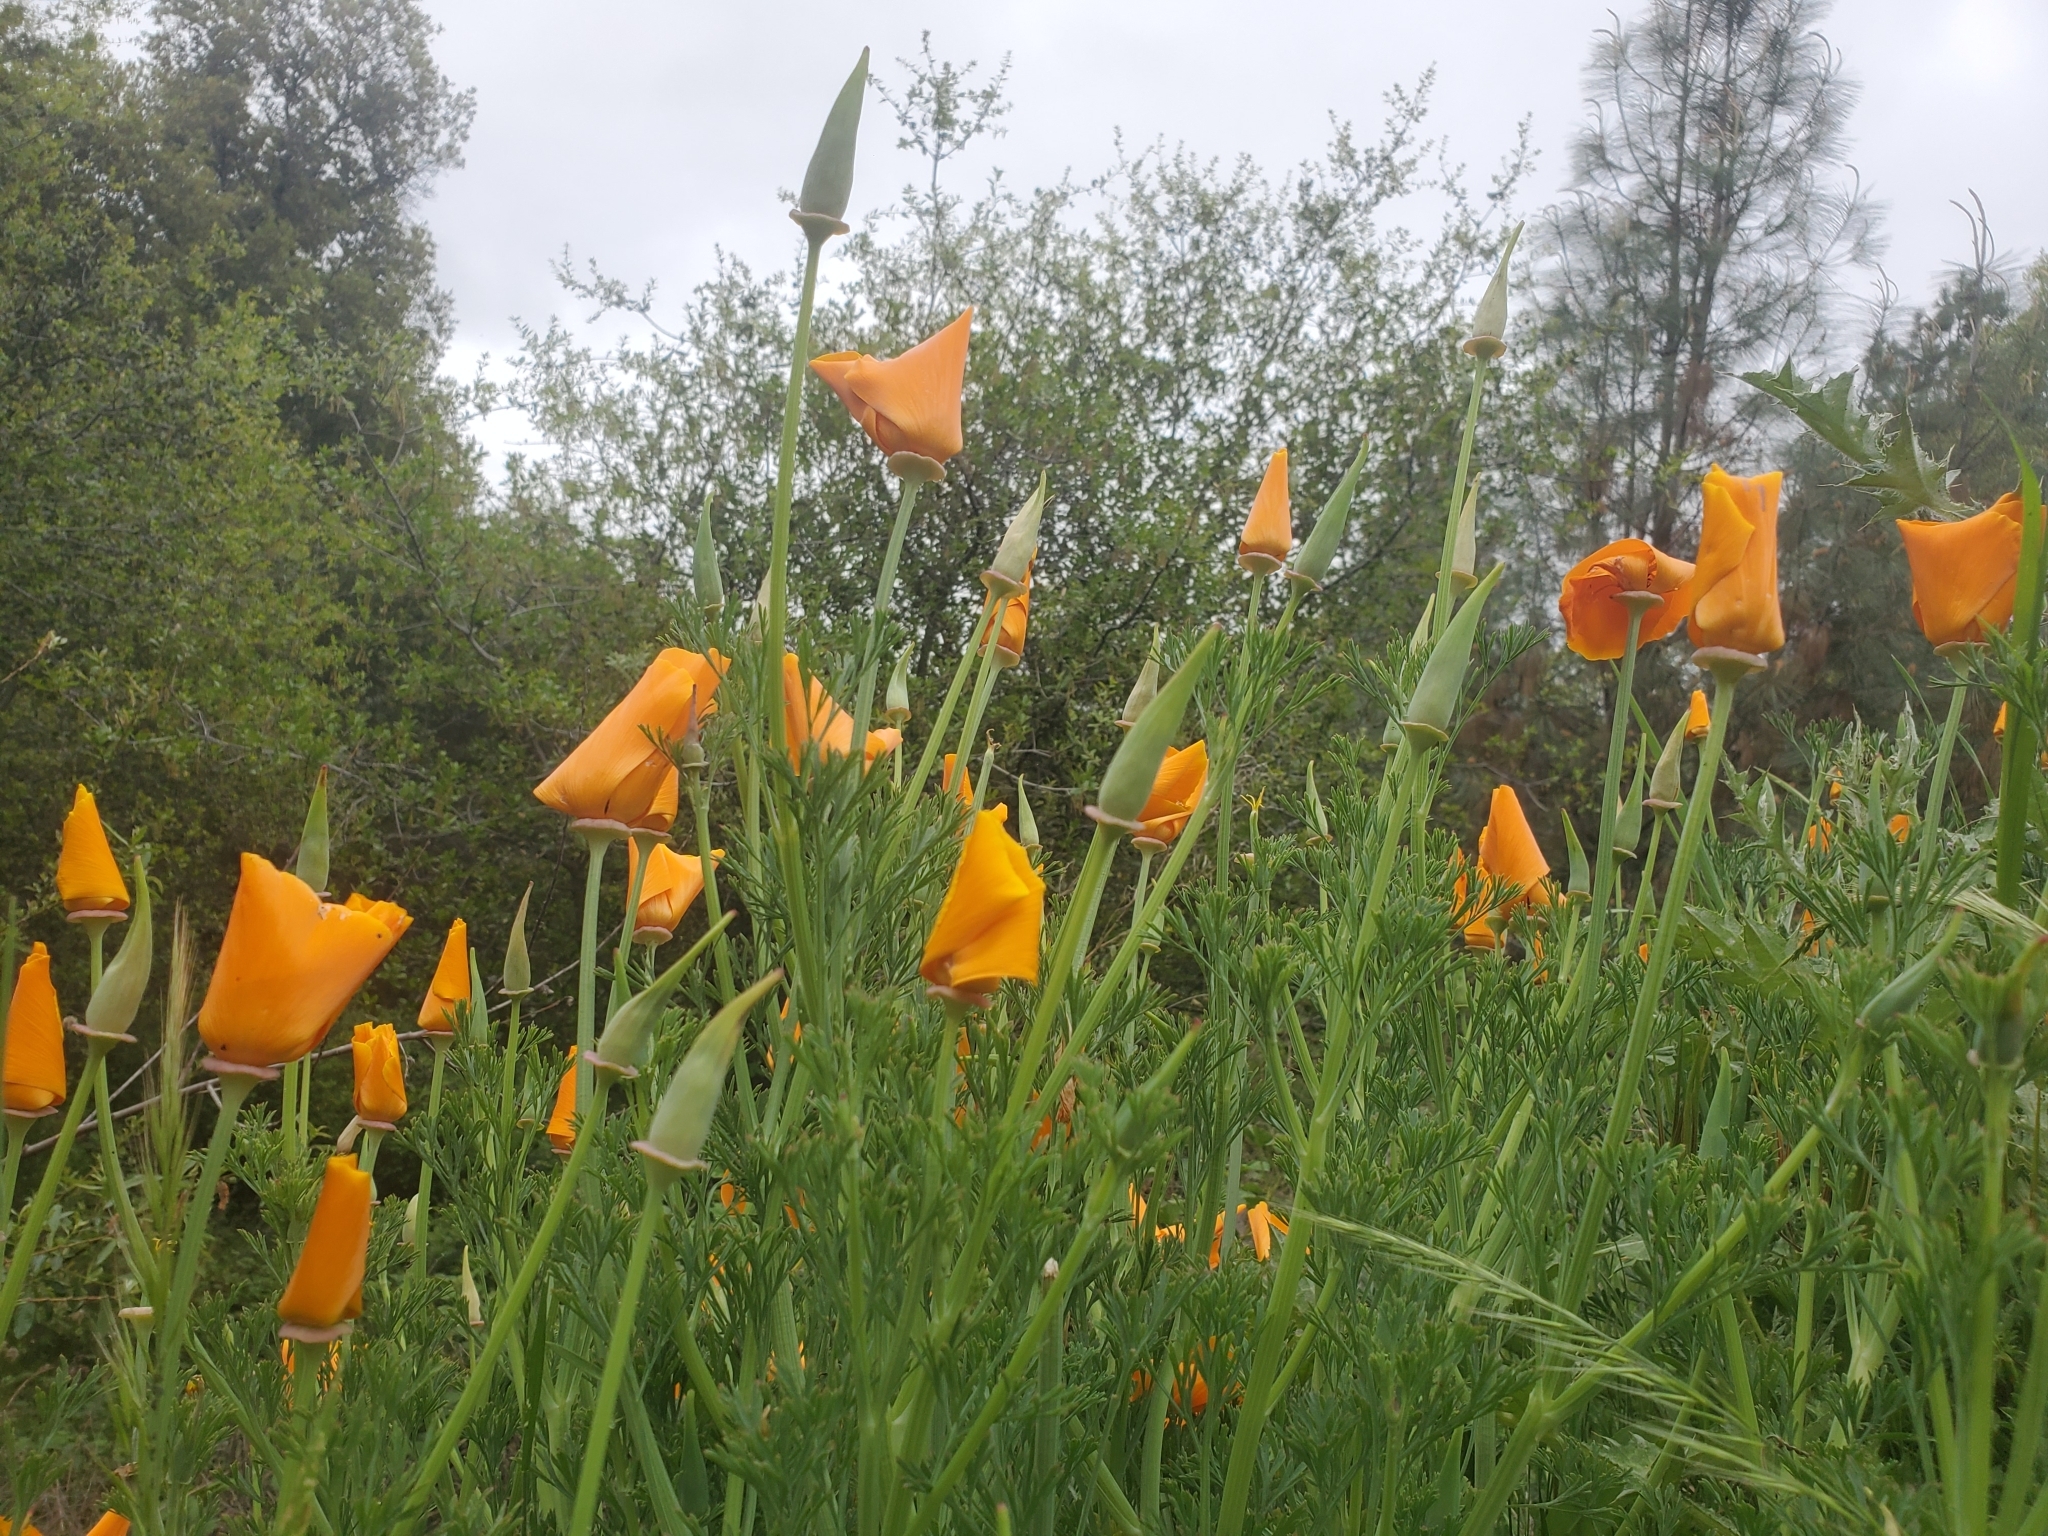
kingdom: Plantae
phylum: Tracheophyta
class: Magnoliopsida
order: Ranunculales
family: Papaveraceae
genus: Eschscholzia
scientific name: Eschscholzia californica
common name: California poppy
